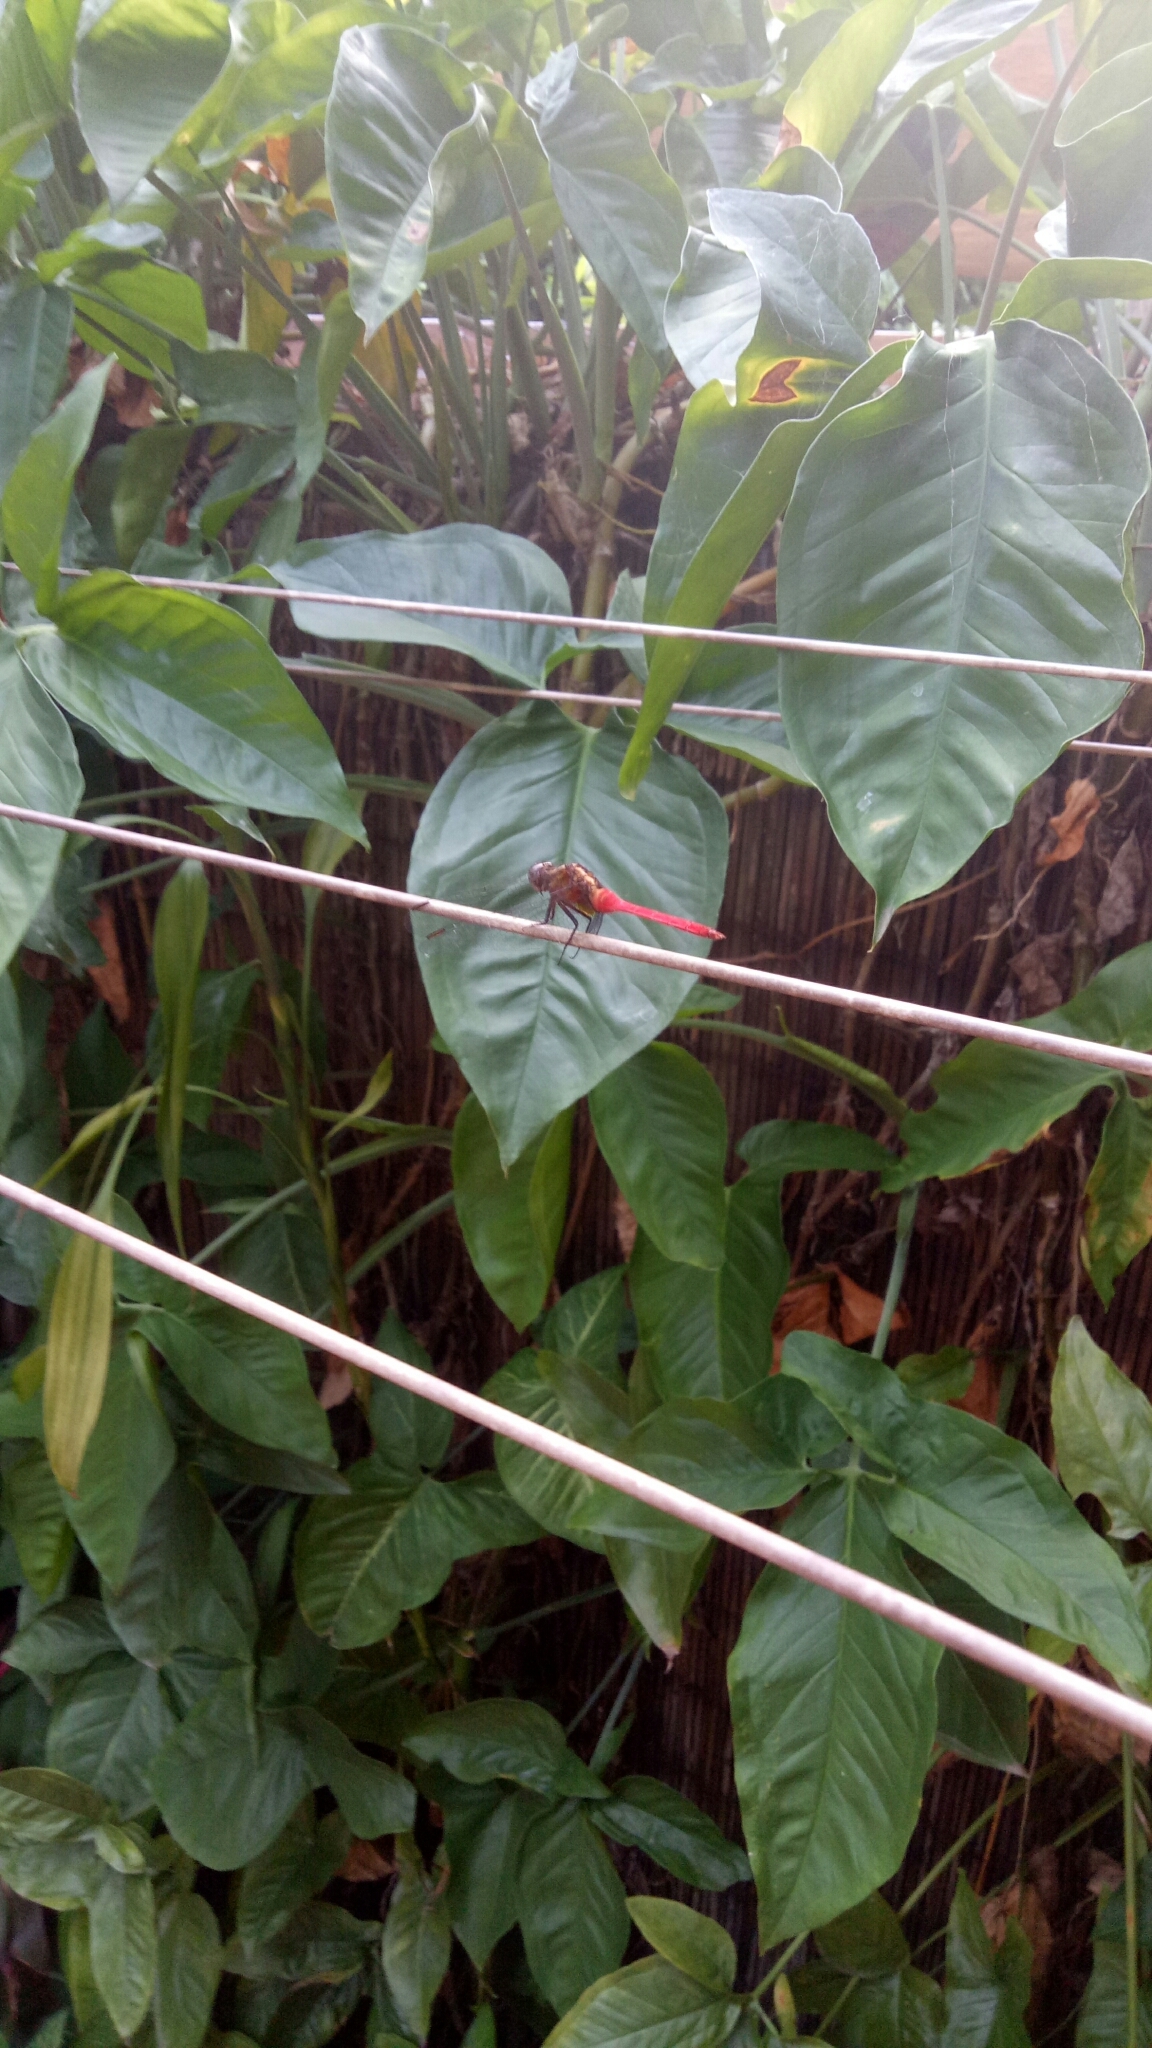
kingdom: Animalia
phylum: Arthropoda
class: Insecta
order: Odonata
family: Libellulidae
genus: Orthetrum
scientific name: Orthetrum villosovittatum
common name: Firery skimmer
